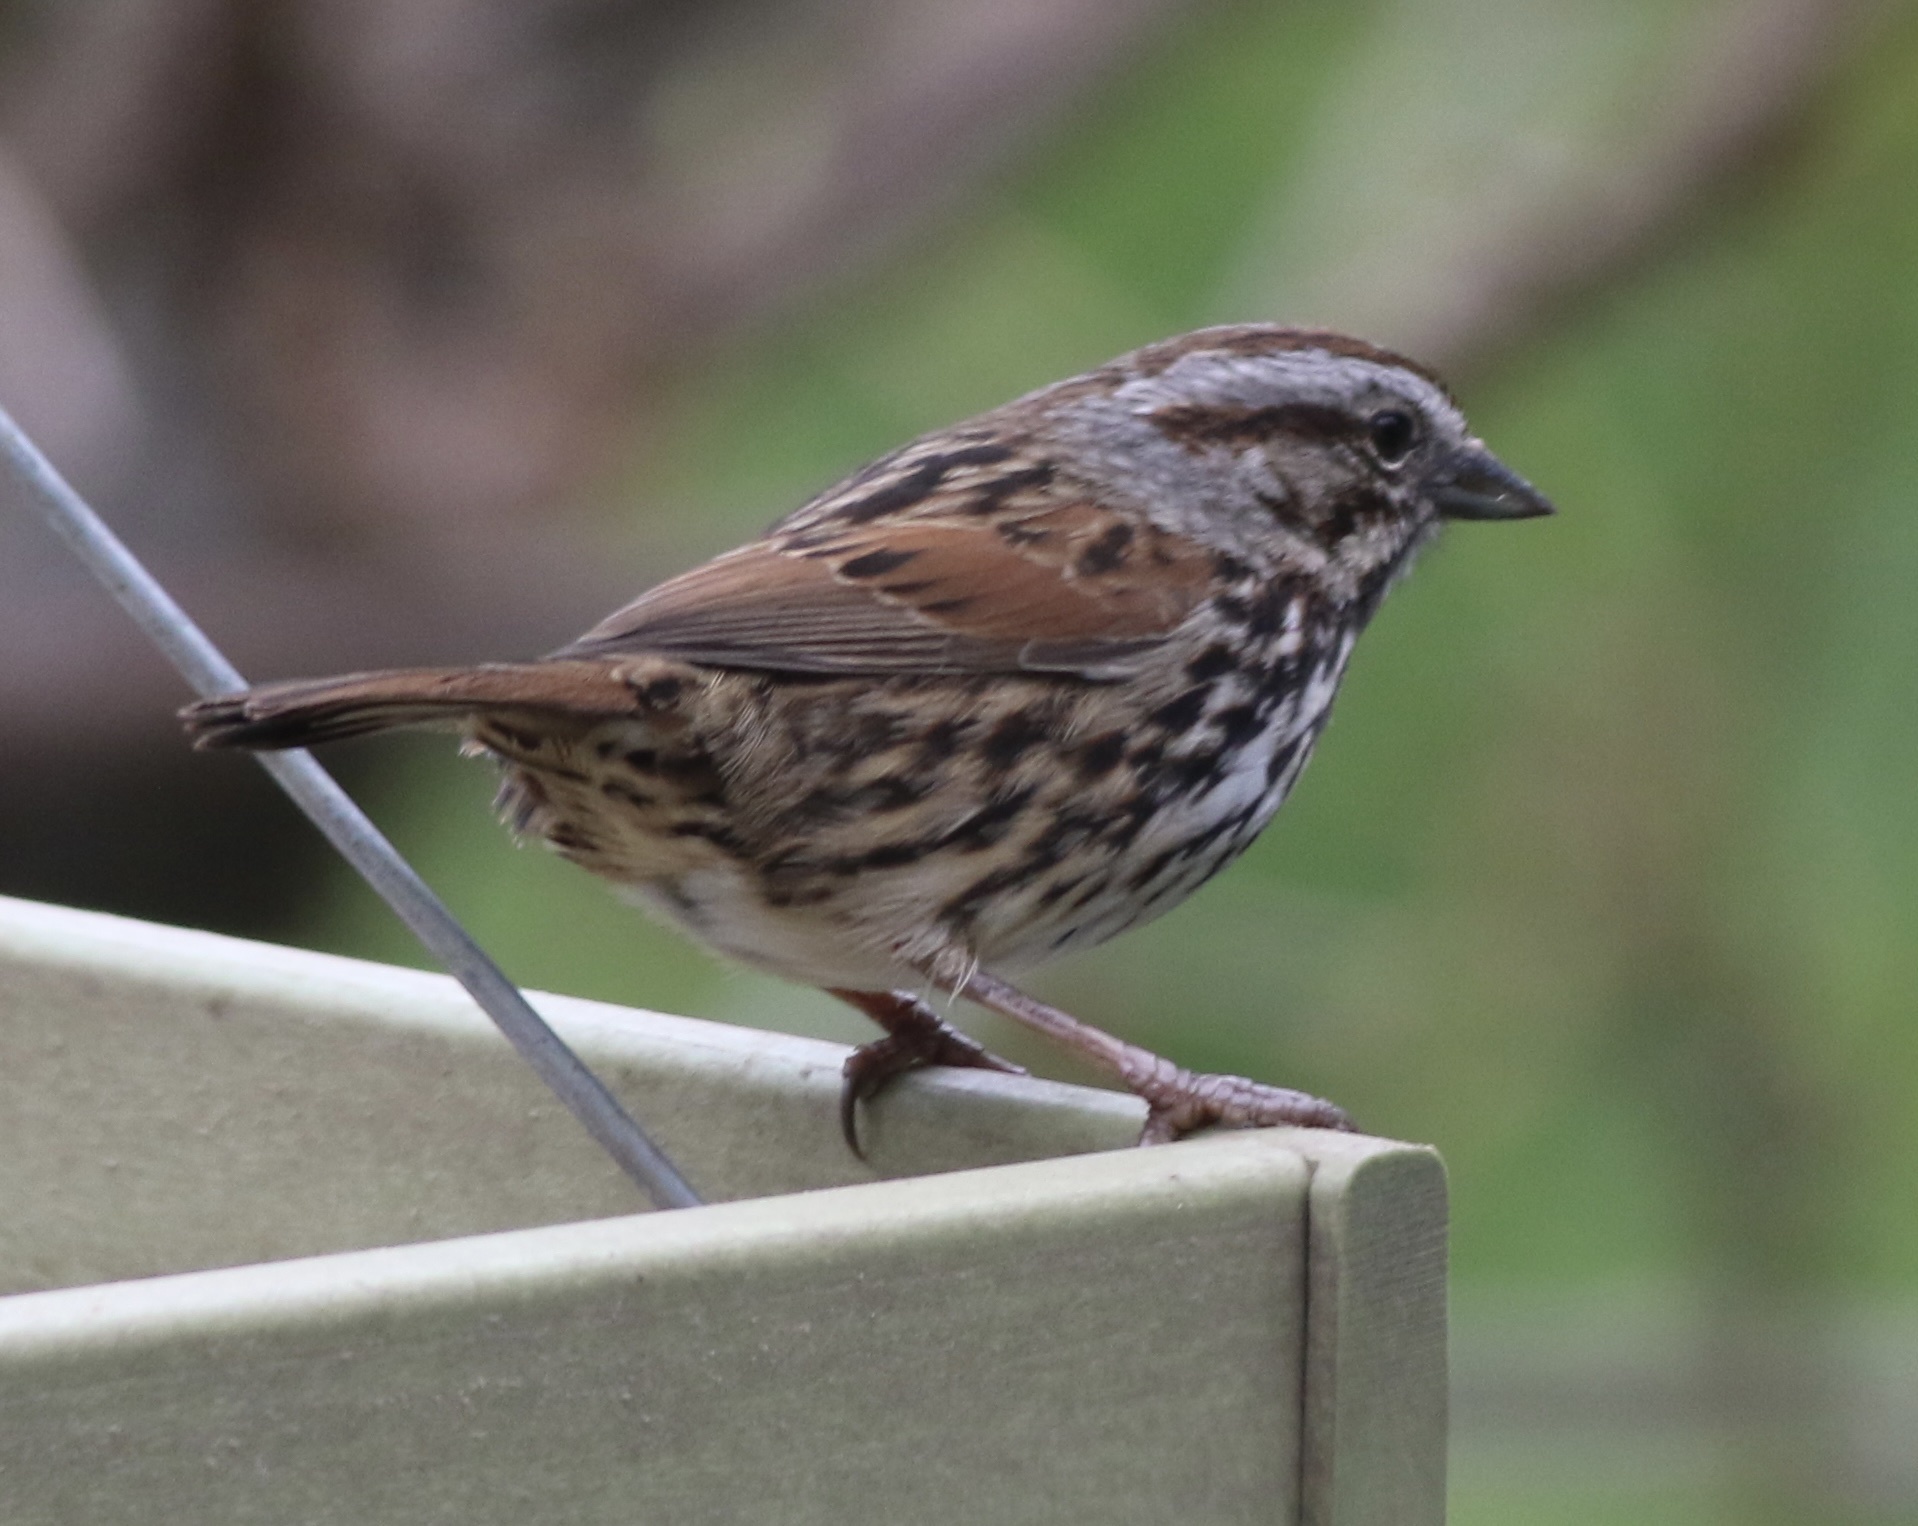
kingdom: Animalia
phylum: Chordata
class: Aves
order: Passeriformes
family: Passerellidae
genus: Melospiza
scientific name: Melospiza melodia
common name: Song sparrow
